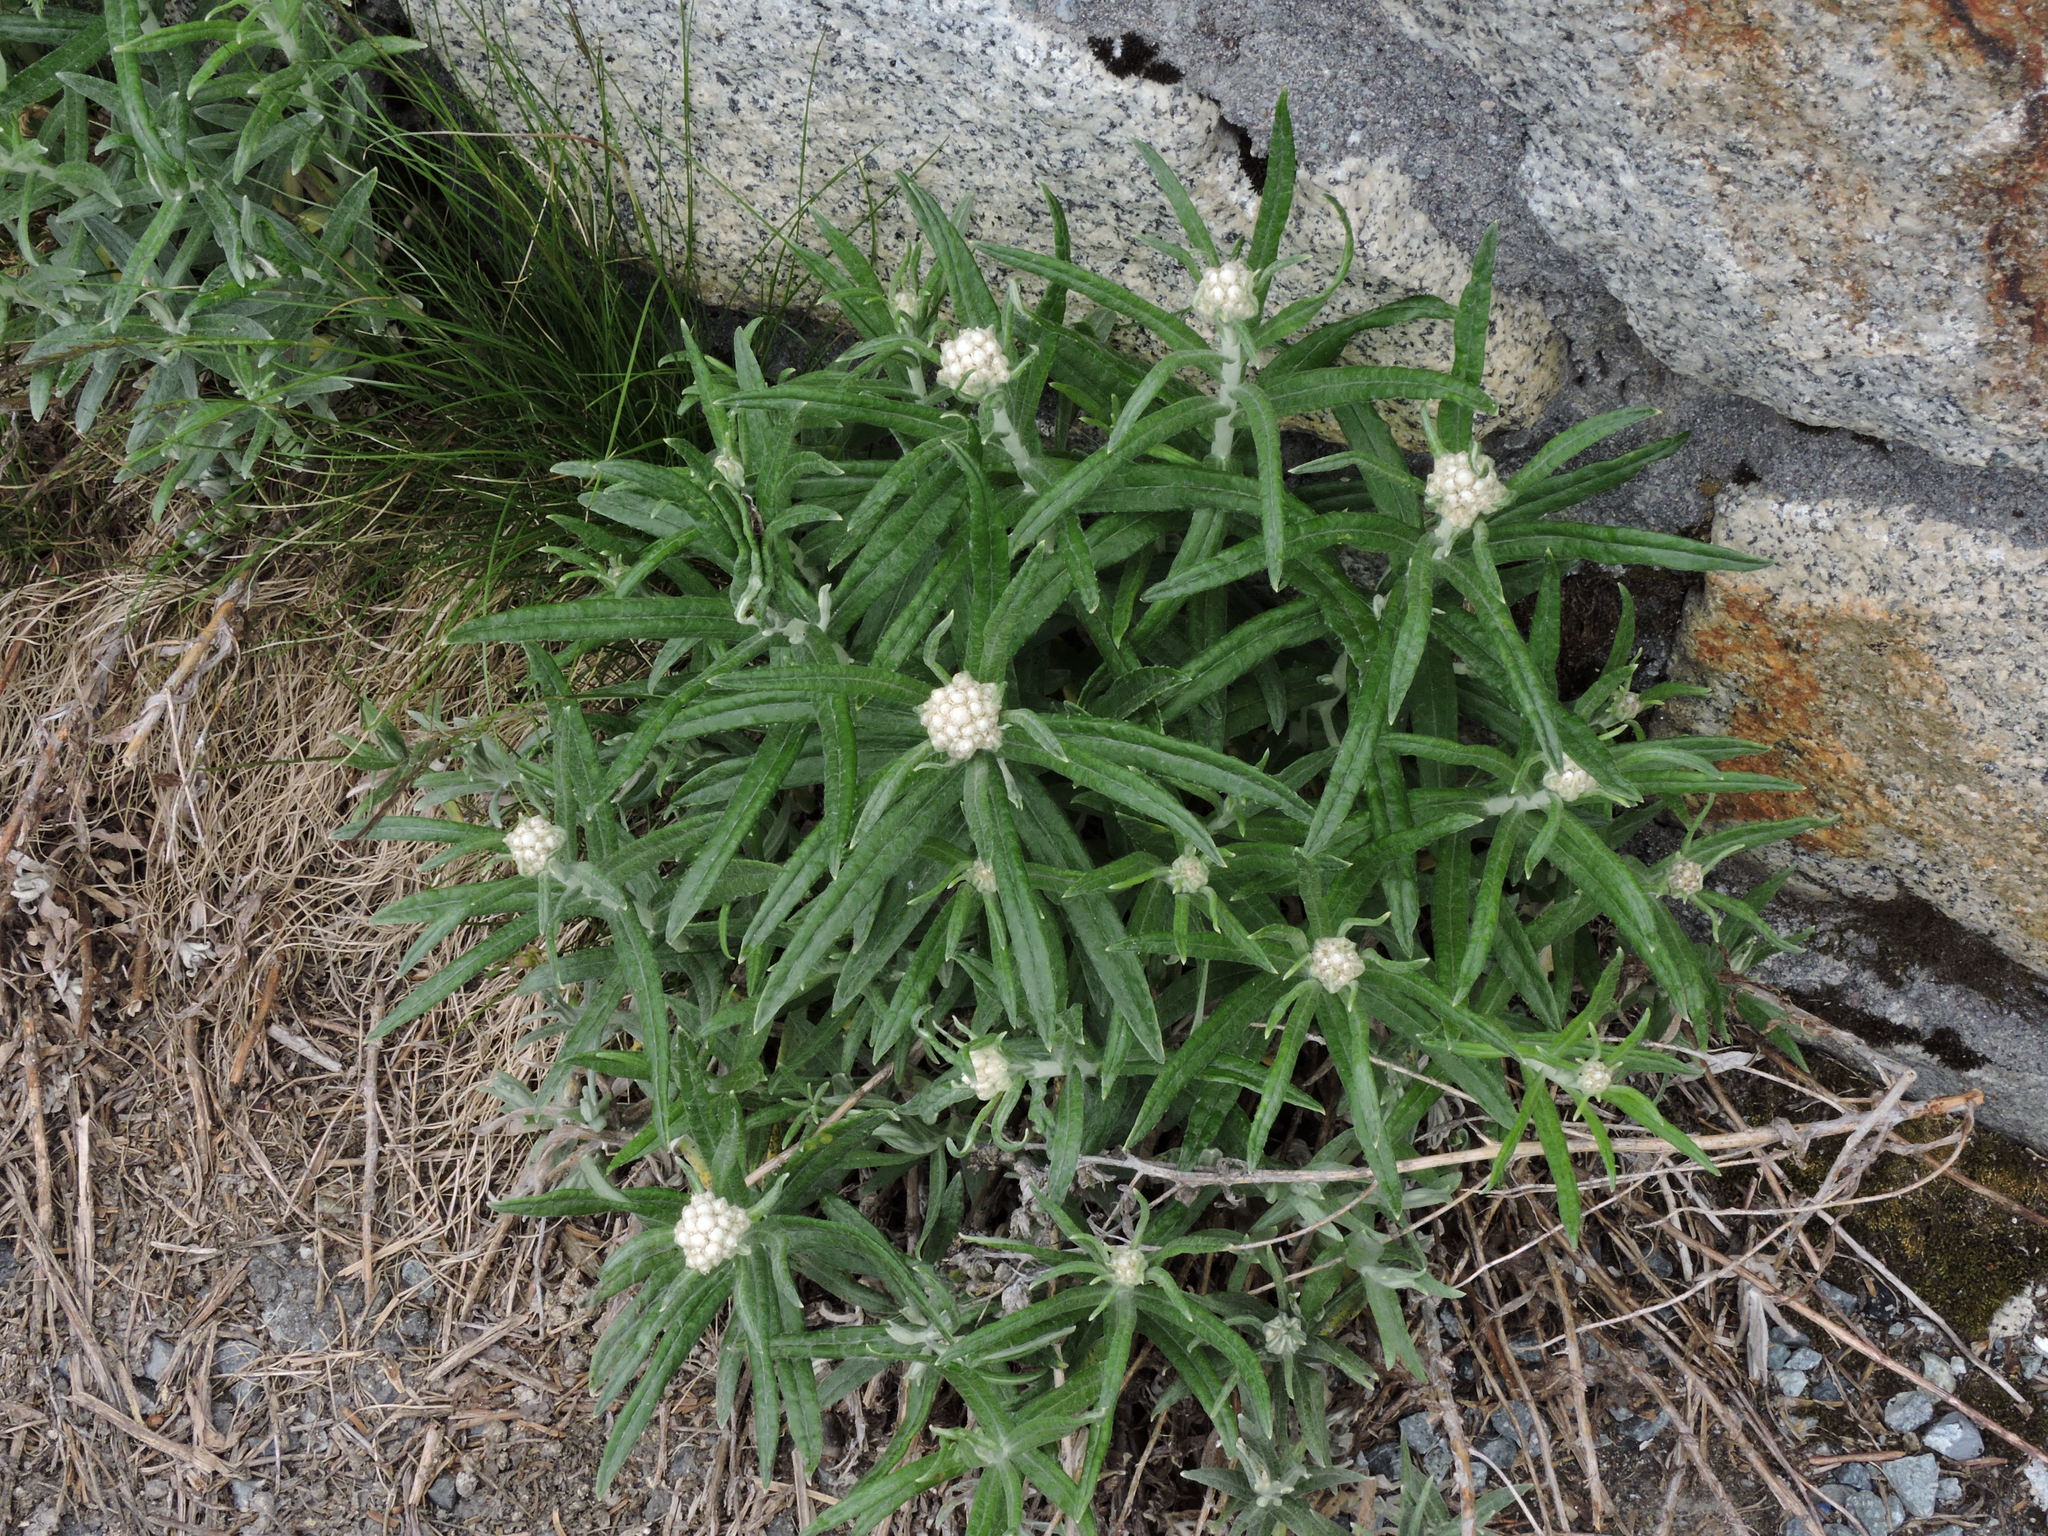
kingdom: Plantae
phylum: Tracheophyta
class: Magnoliopsida
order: Asterales
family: Asteraceae
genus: Anaphalis
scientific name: Anaphalis margaritacea
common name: Pearly everlasting
